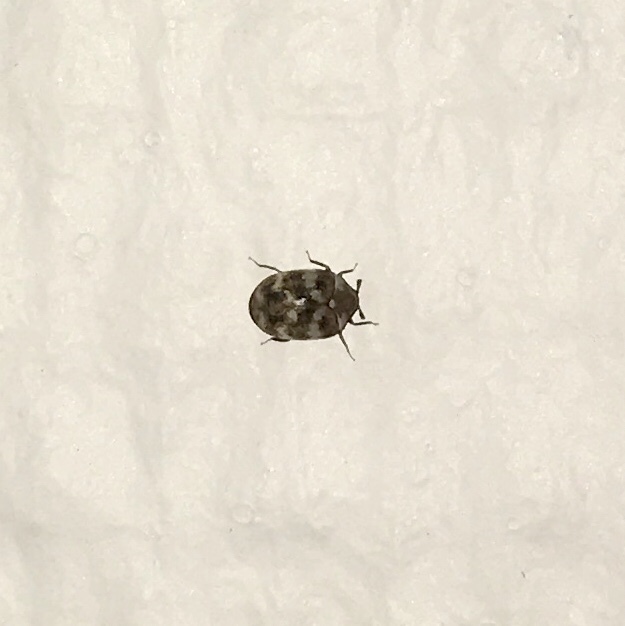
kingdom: Animalia
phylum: Arthropoda
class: Insecta
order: Coleoptera
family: Dermestidae
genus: Anthrenus
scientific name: Anthrenus verbasci
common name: Varied carpet beetle
